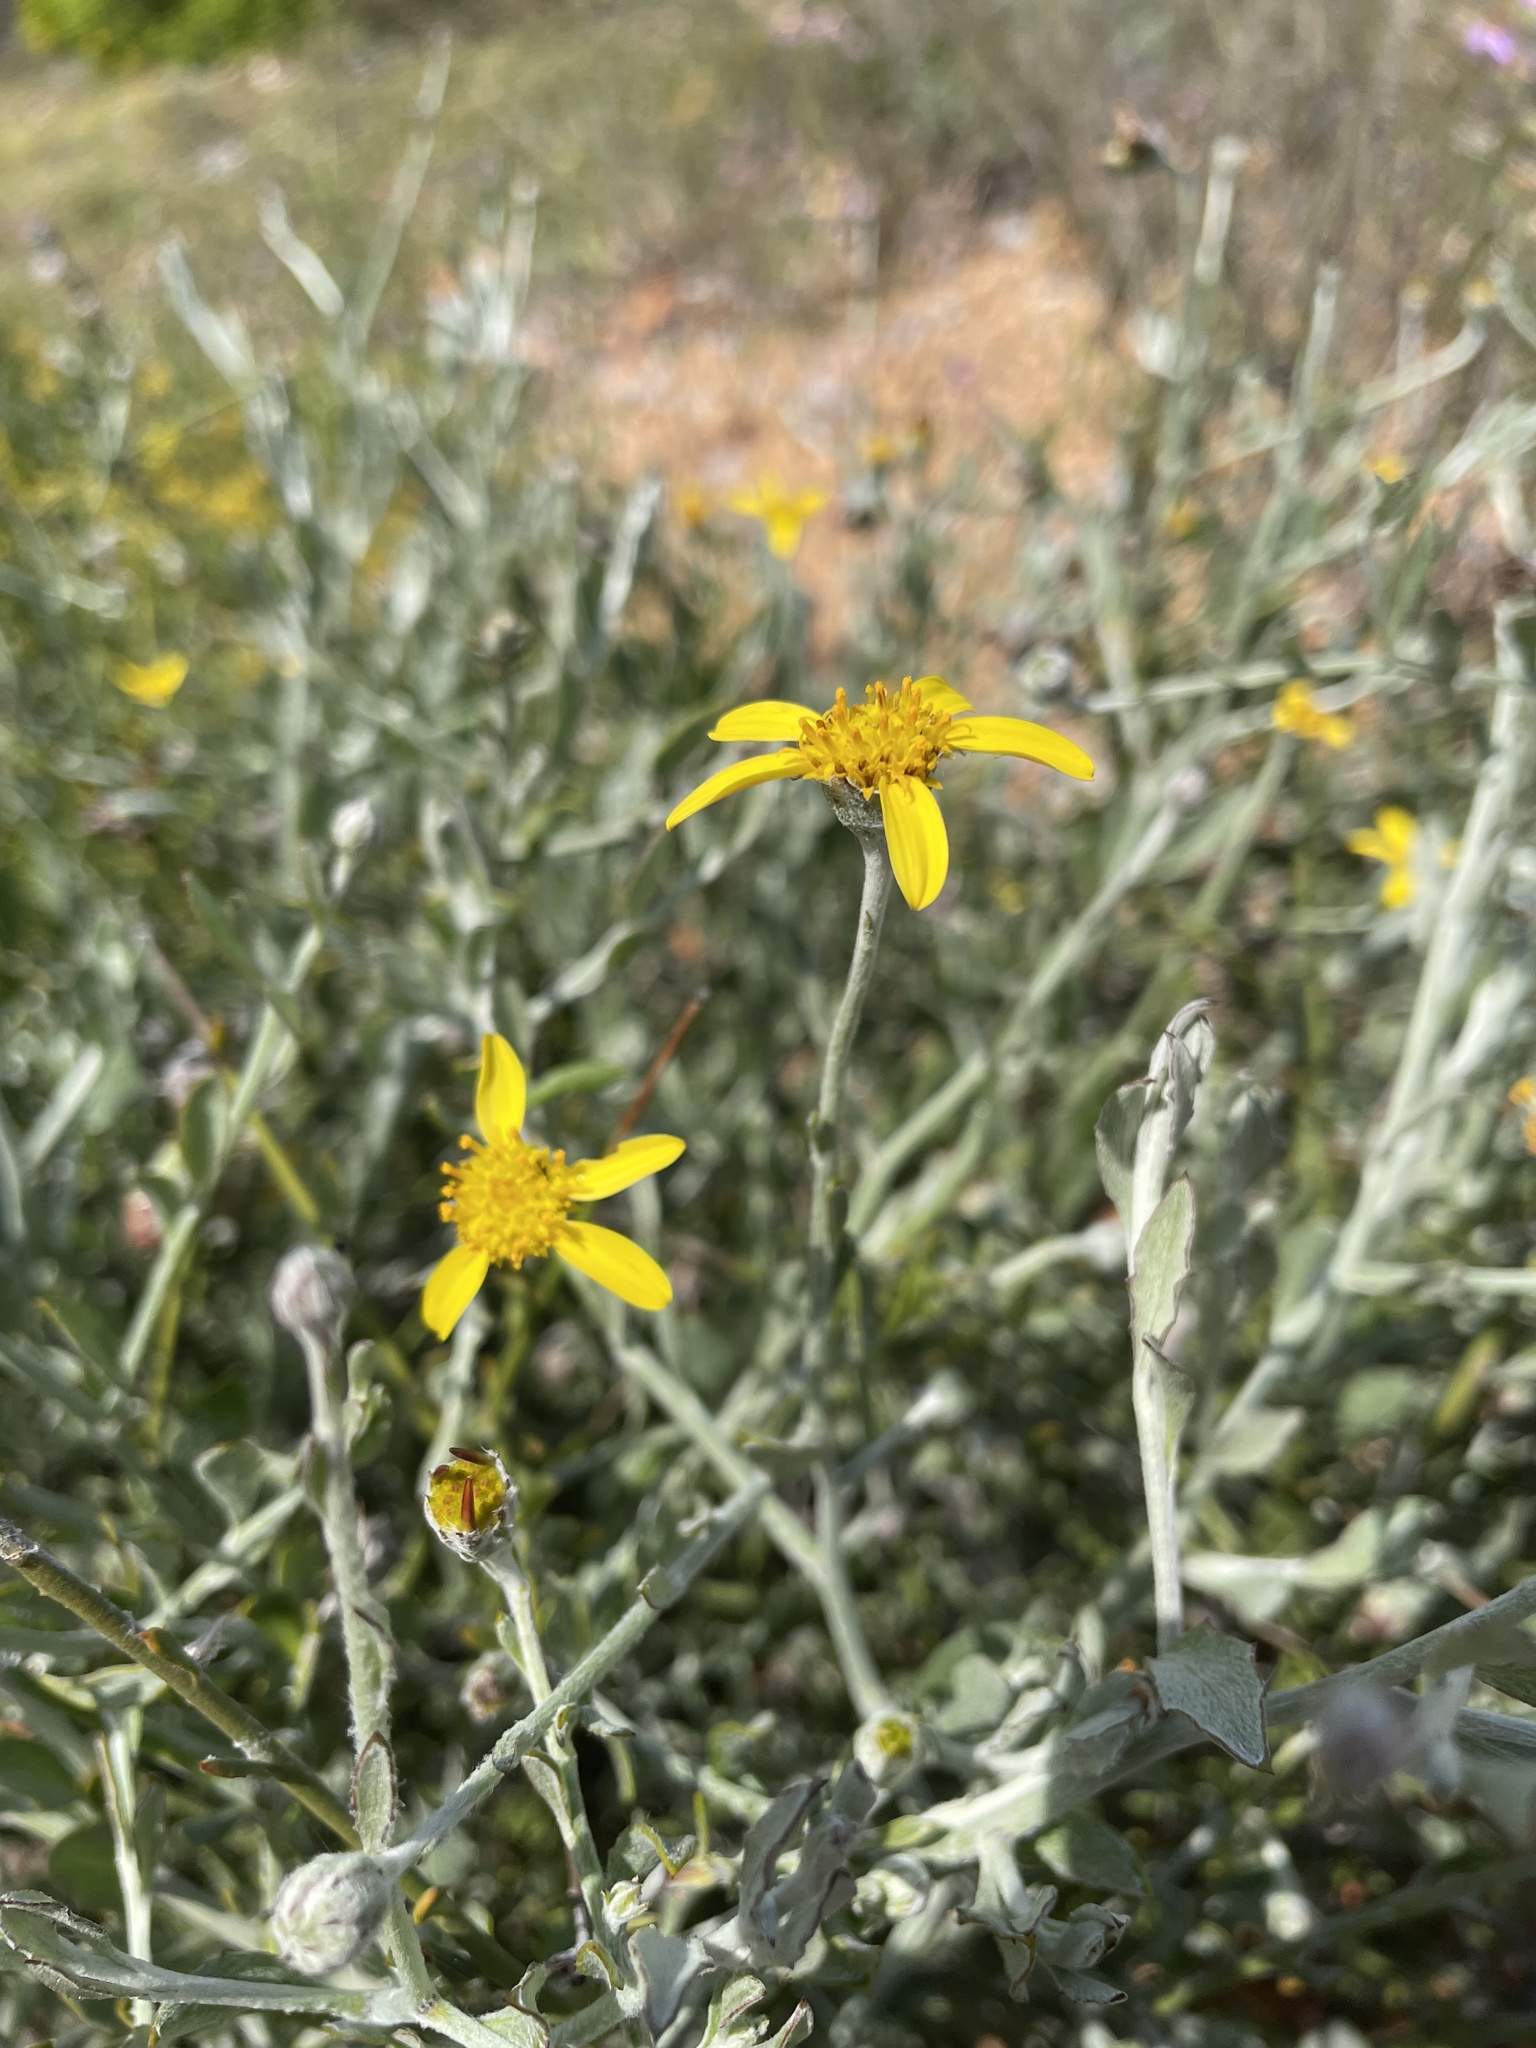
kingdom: Plantae
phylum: Tracheophyta
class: Magnoliopsida
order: Asterales
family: Asteraceae
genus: Osteospermum
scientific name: Osteospermum incanum
